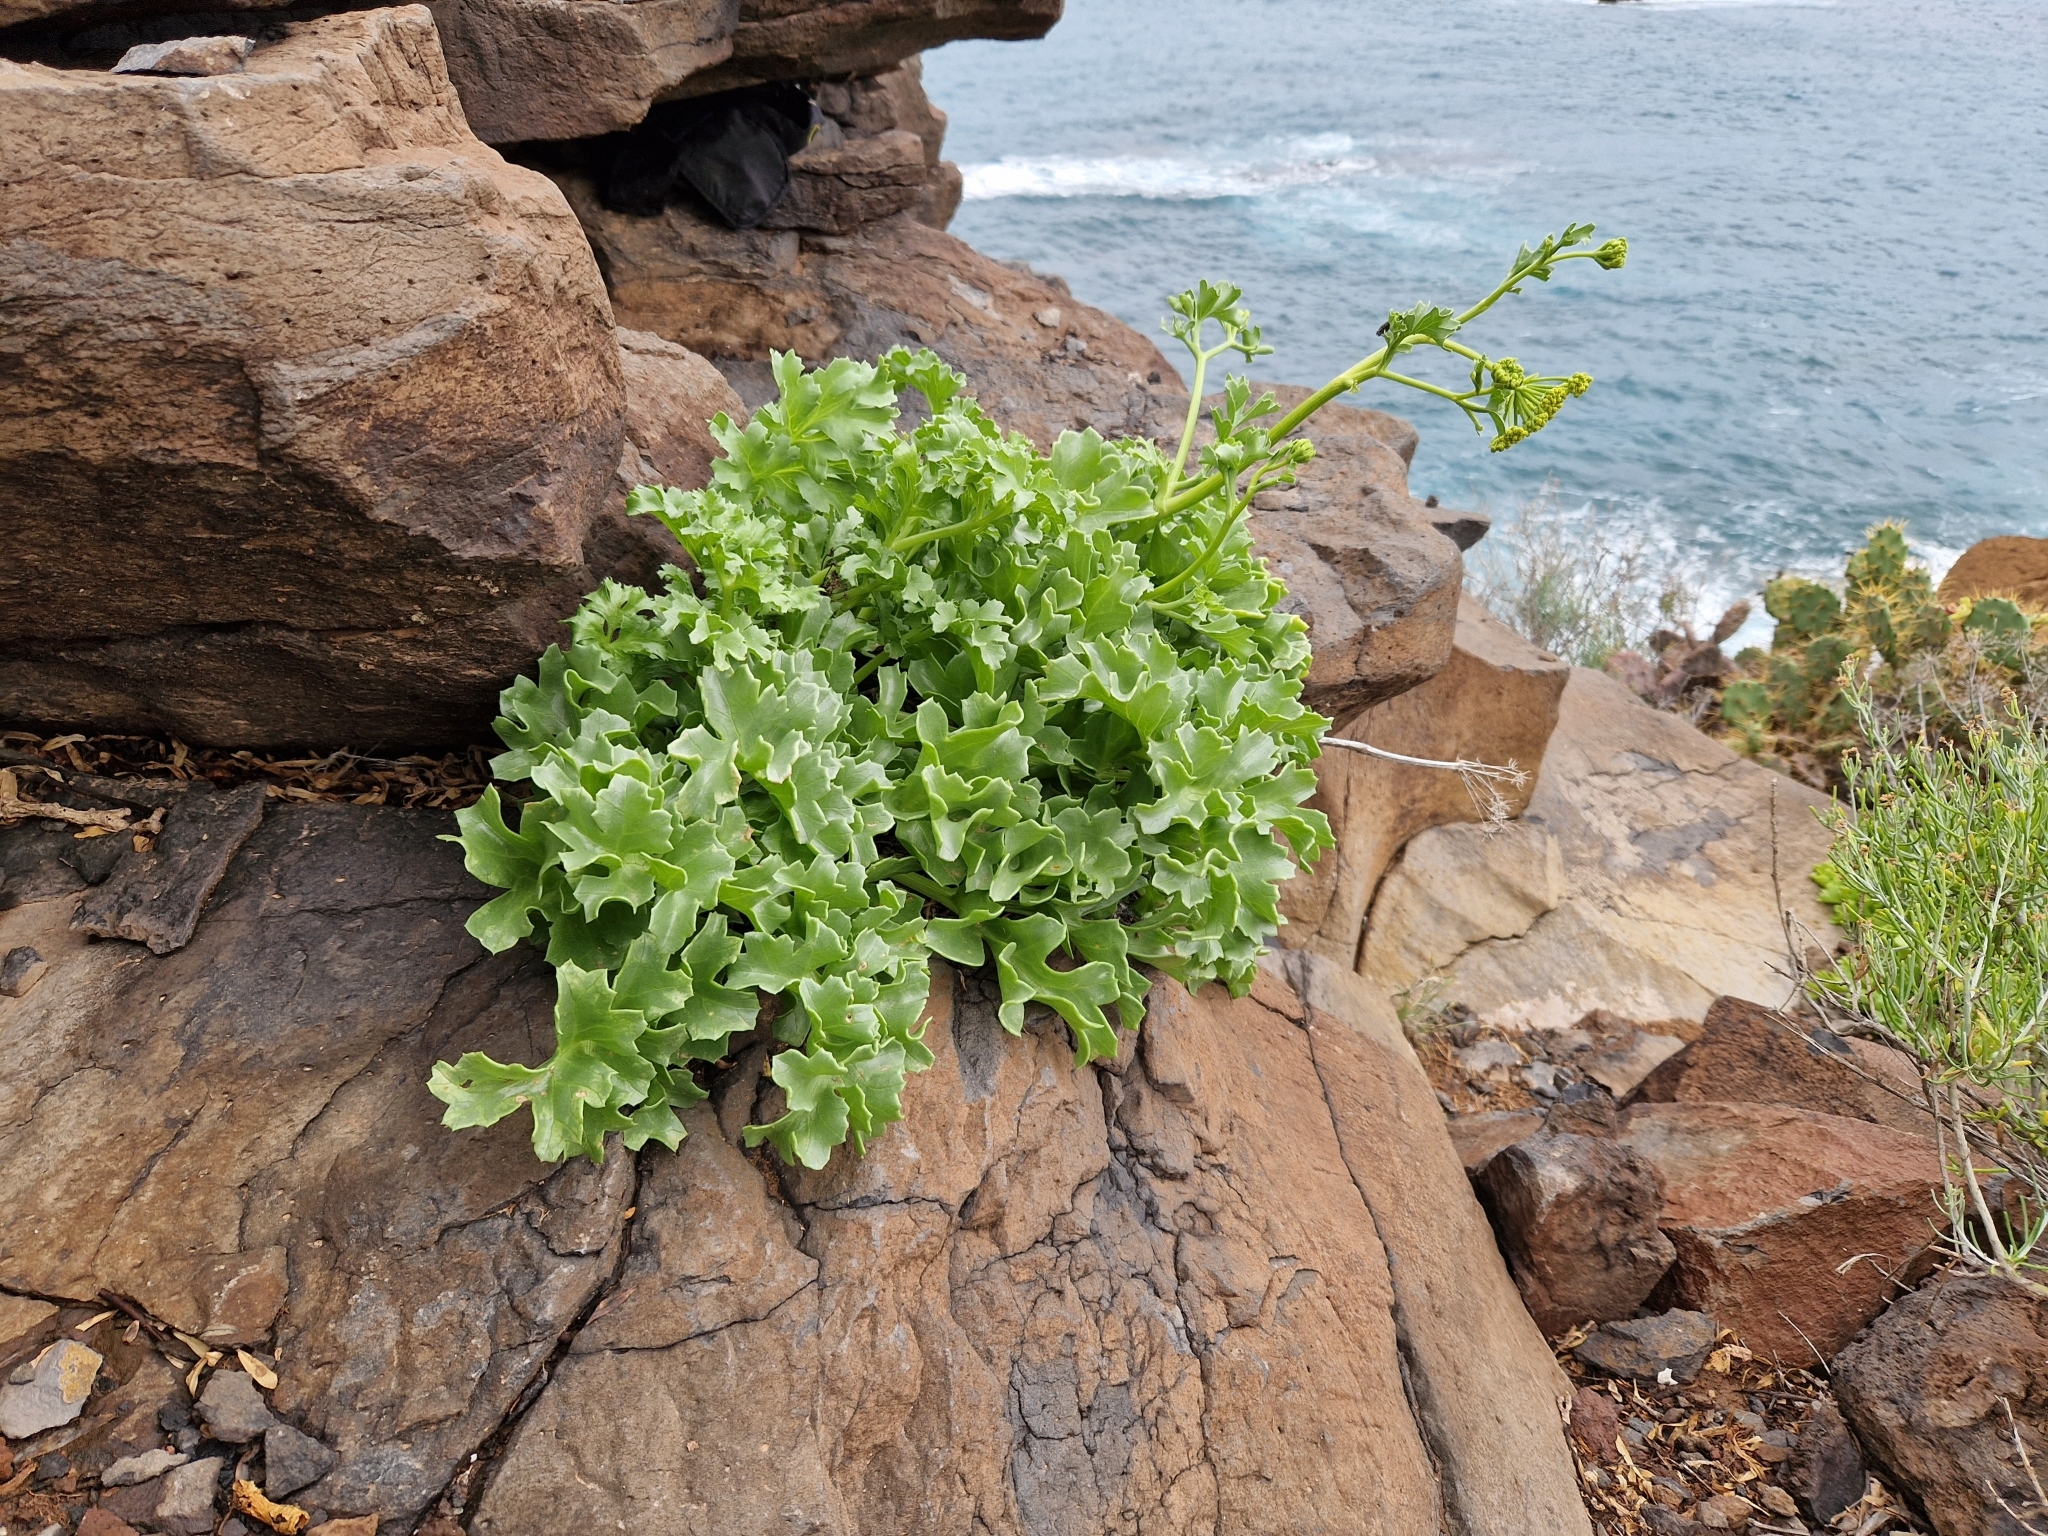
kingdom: Plantae
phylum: Tracheophyta
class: Magnoliopsida
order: Apiales
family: Apiaceae
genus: Astydamia
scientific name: Astydamia latifolia
